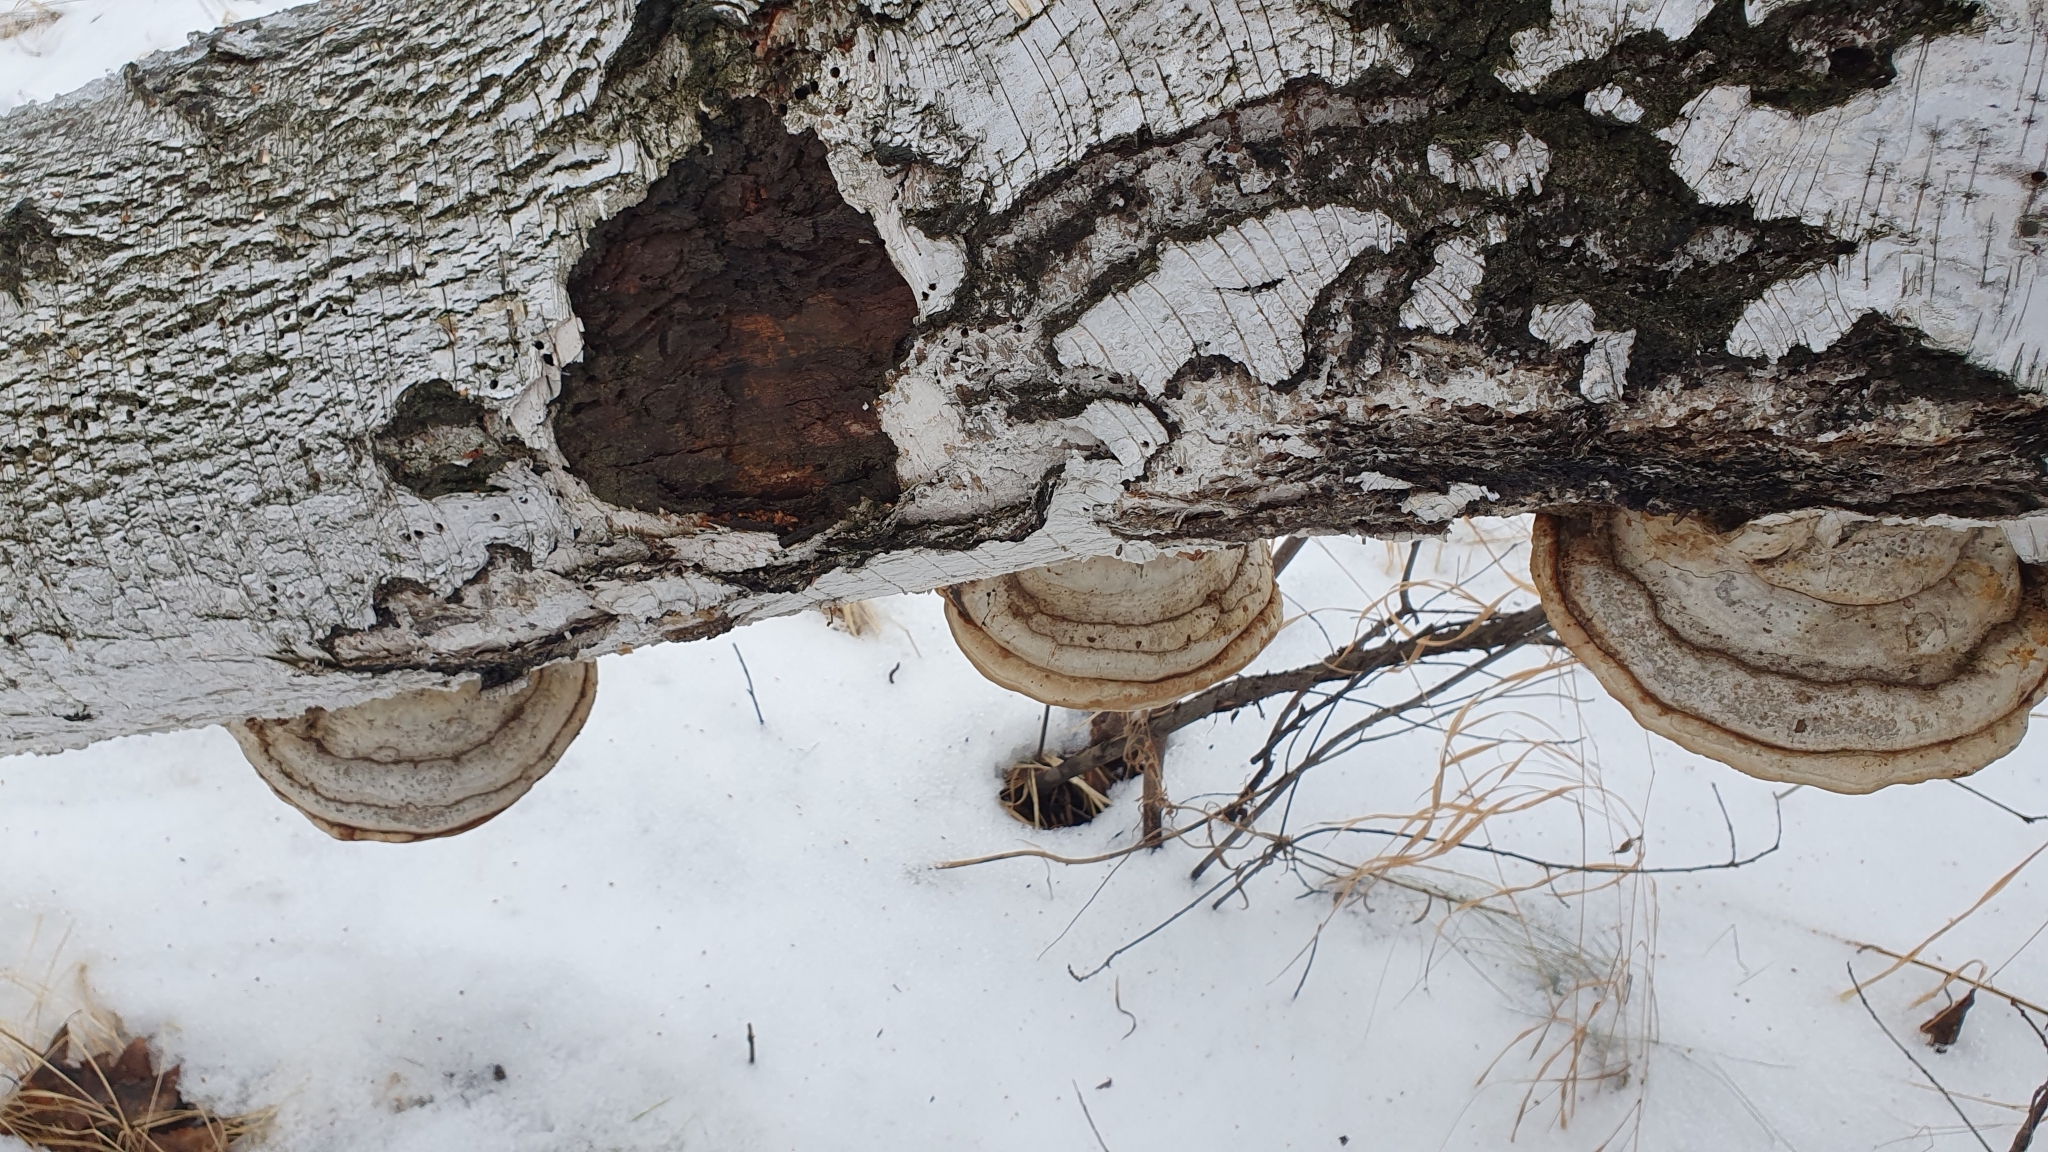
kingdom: Fungi
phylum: Basidiomycota
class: Agaricomycetes
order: Polyporales
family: Polyporaceae
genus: Fomes
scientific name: Fomes fomentarius
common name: Hoof fungus
